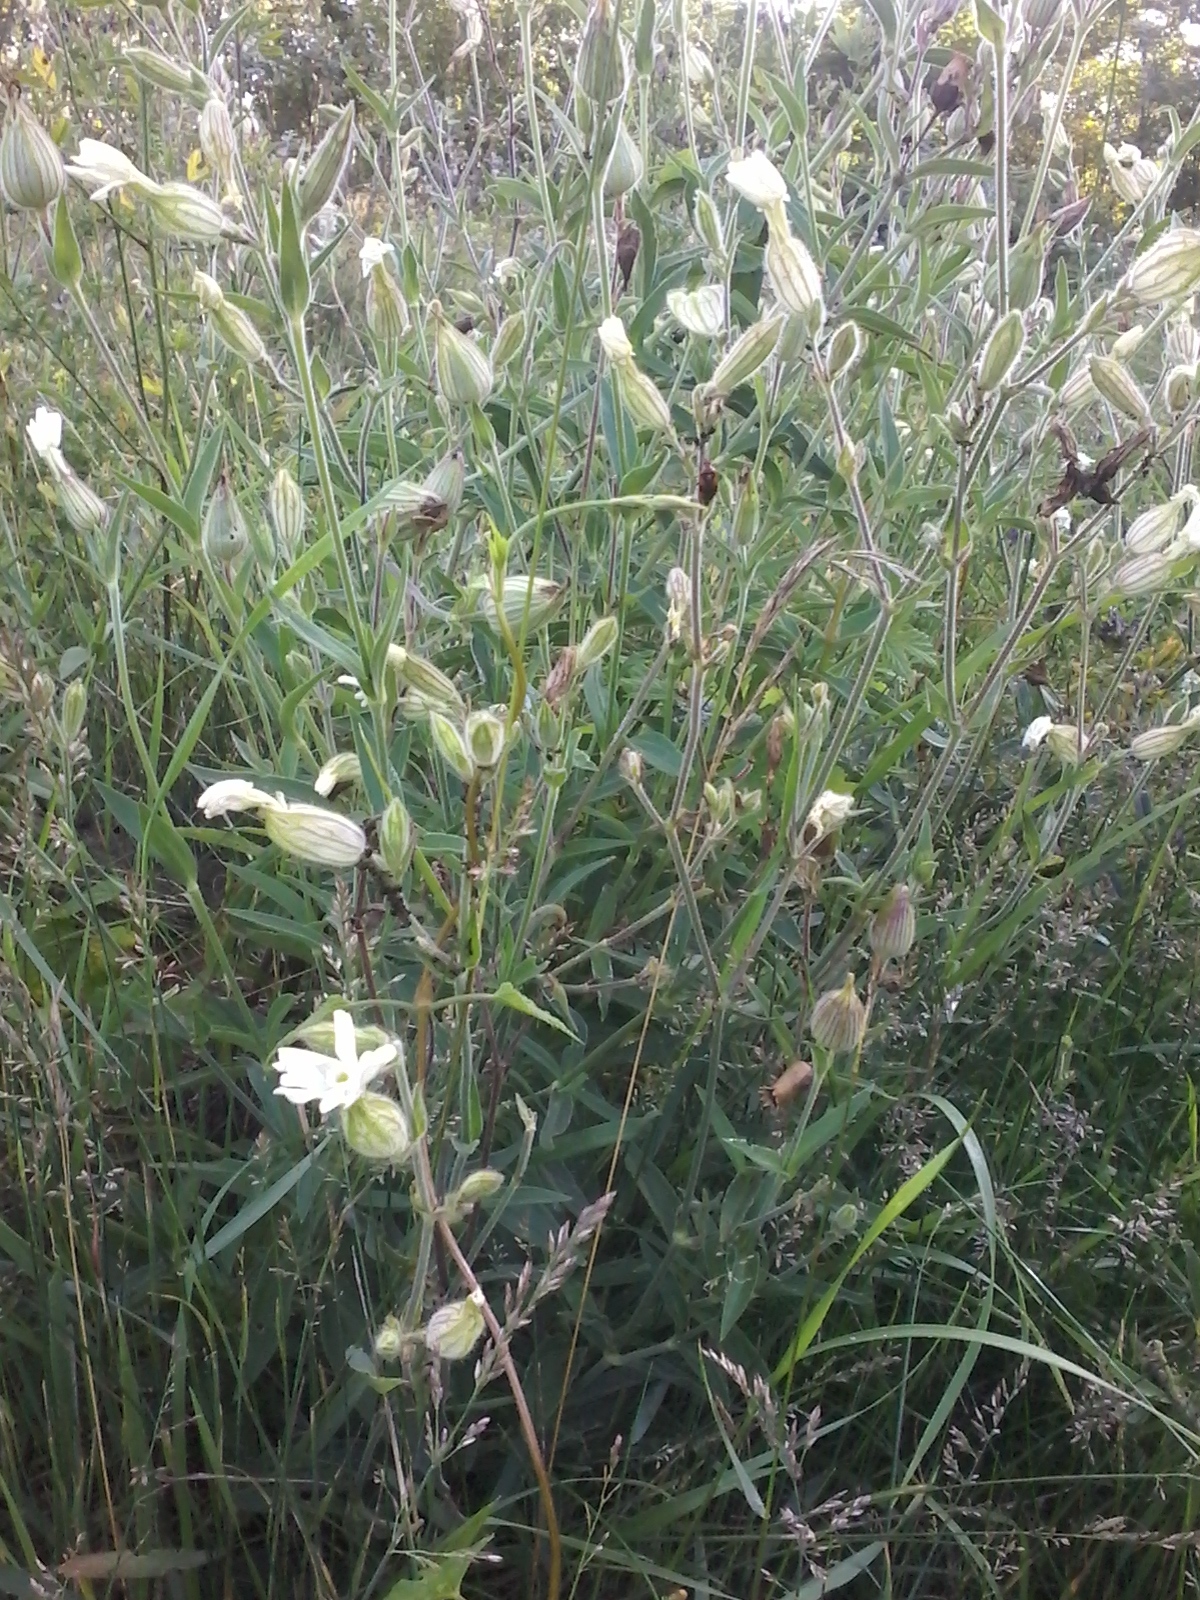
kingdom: Plantae
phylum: Tracheophyta
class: Magnoliopsida
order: Caryophyllales
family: Caryophyllaceae
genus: Silene
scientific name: Silene latifolia
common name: White campion
